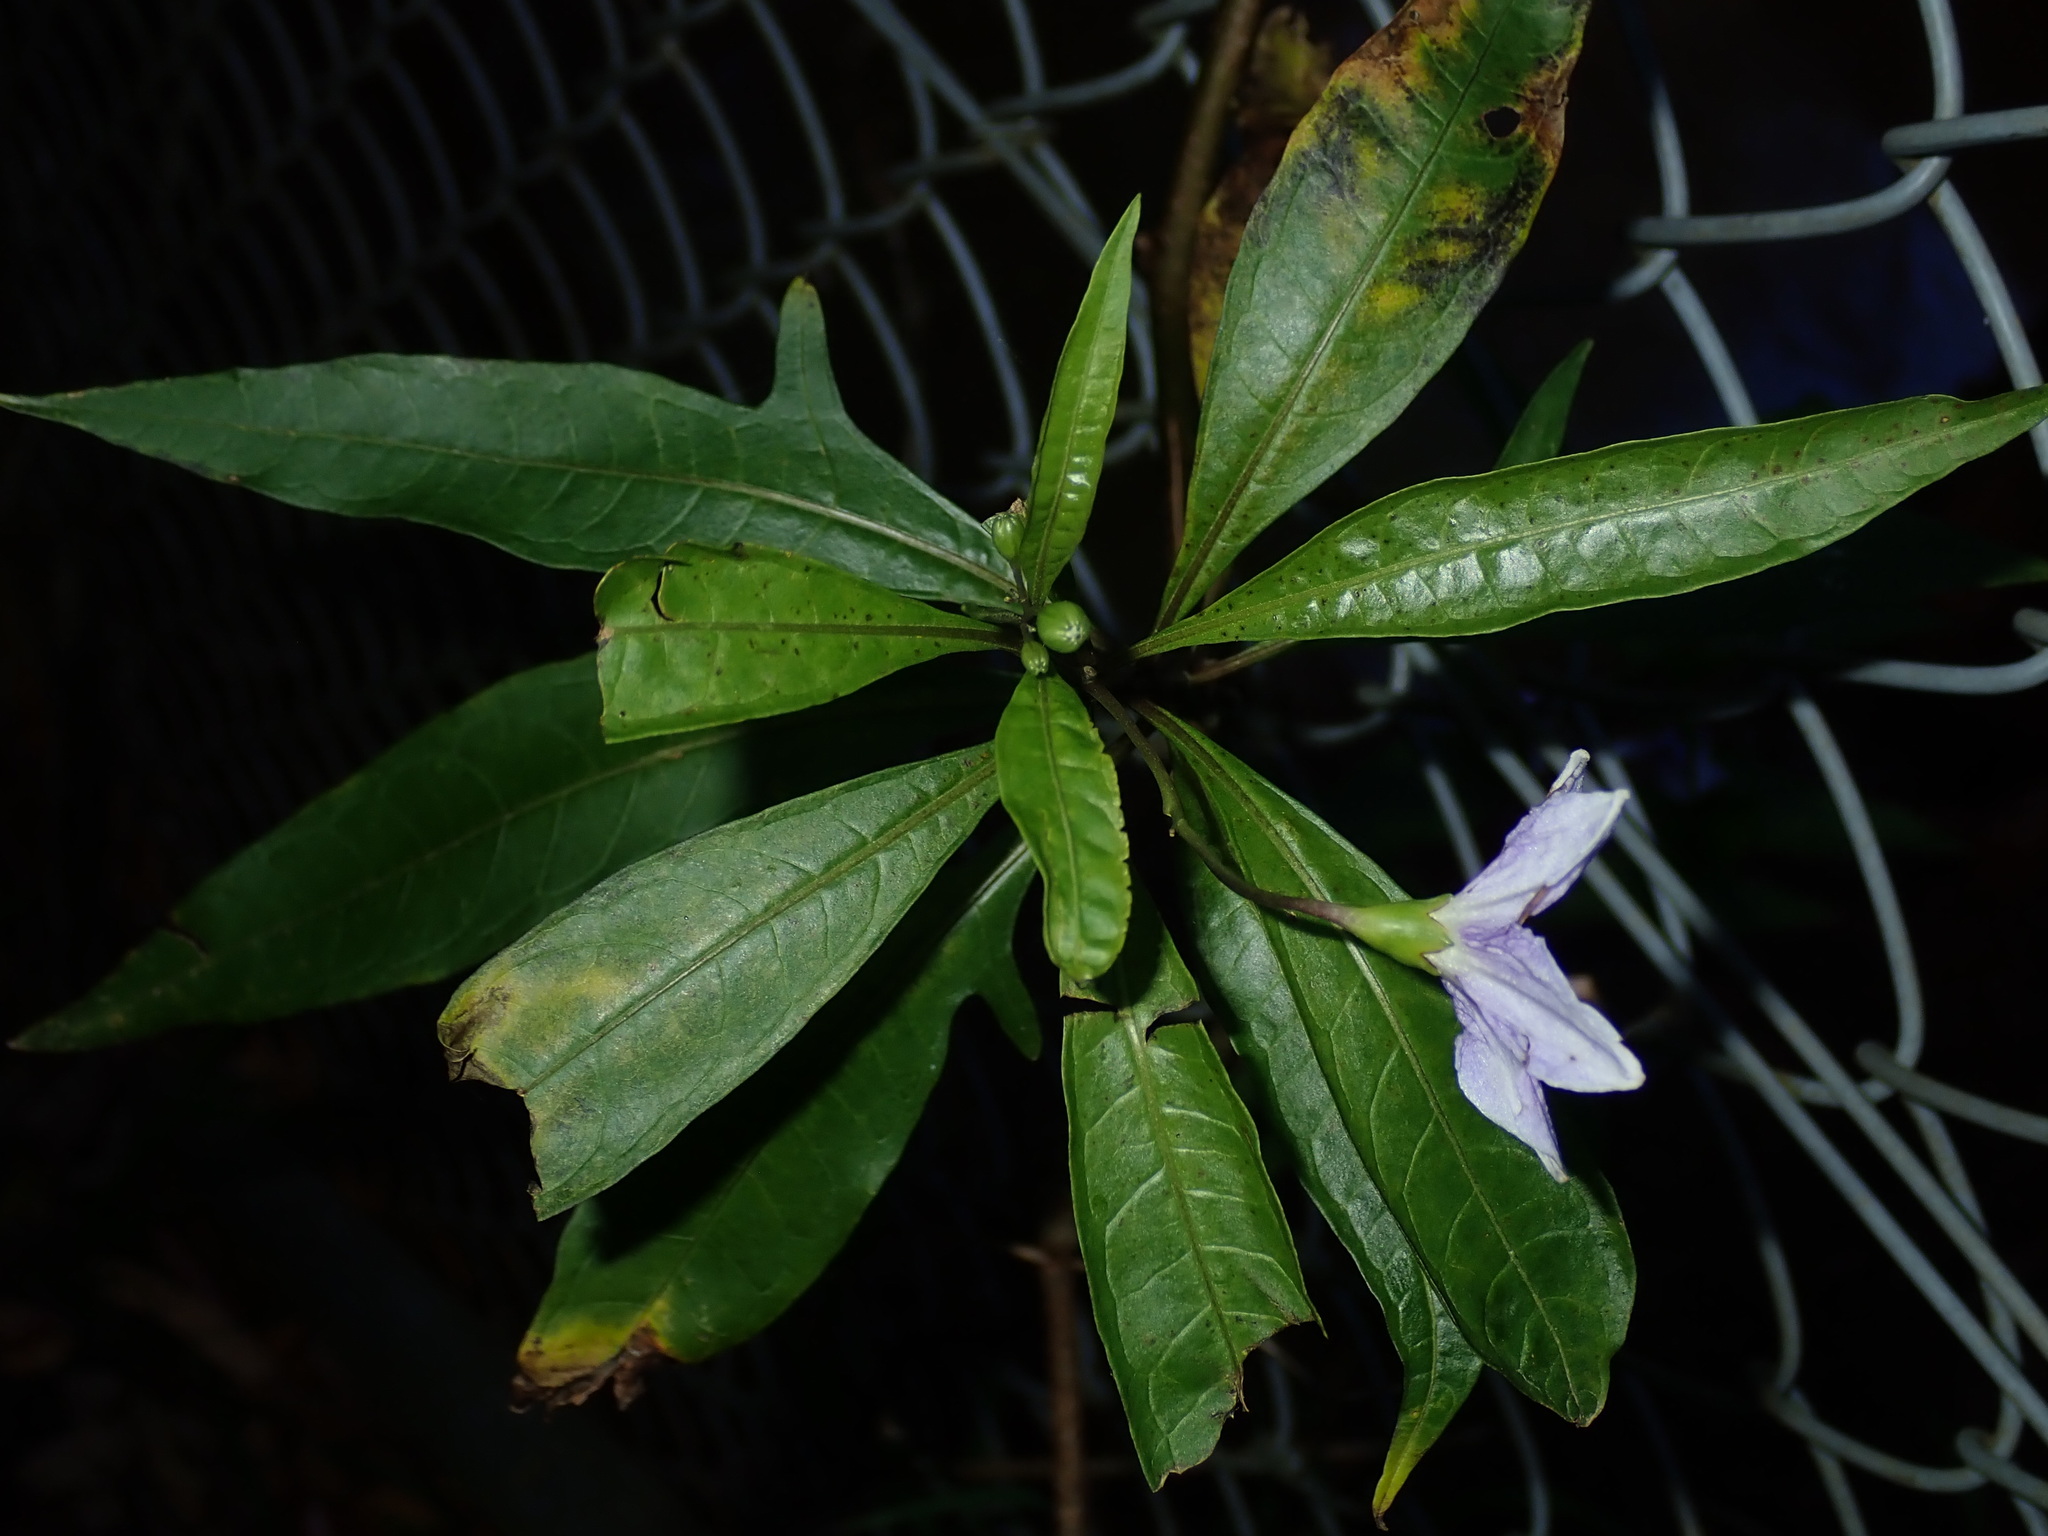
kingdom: Plantae
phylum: Tracheophyta
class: Magnoliopsida
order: Solanales
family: Solanaceae
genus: Solanum
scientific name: Solanum aviculare
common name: New zealand nightshade
